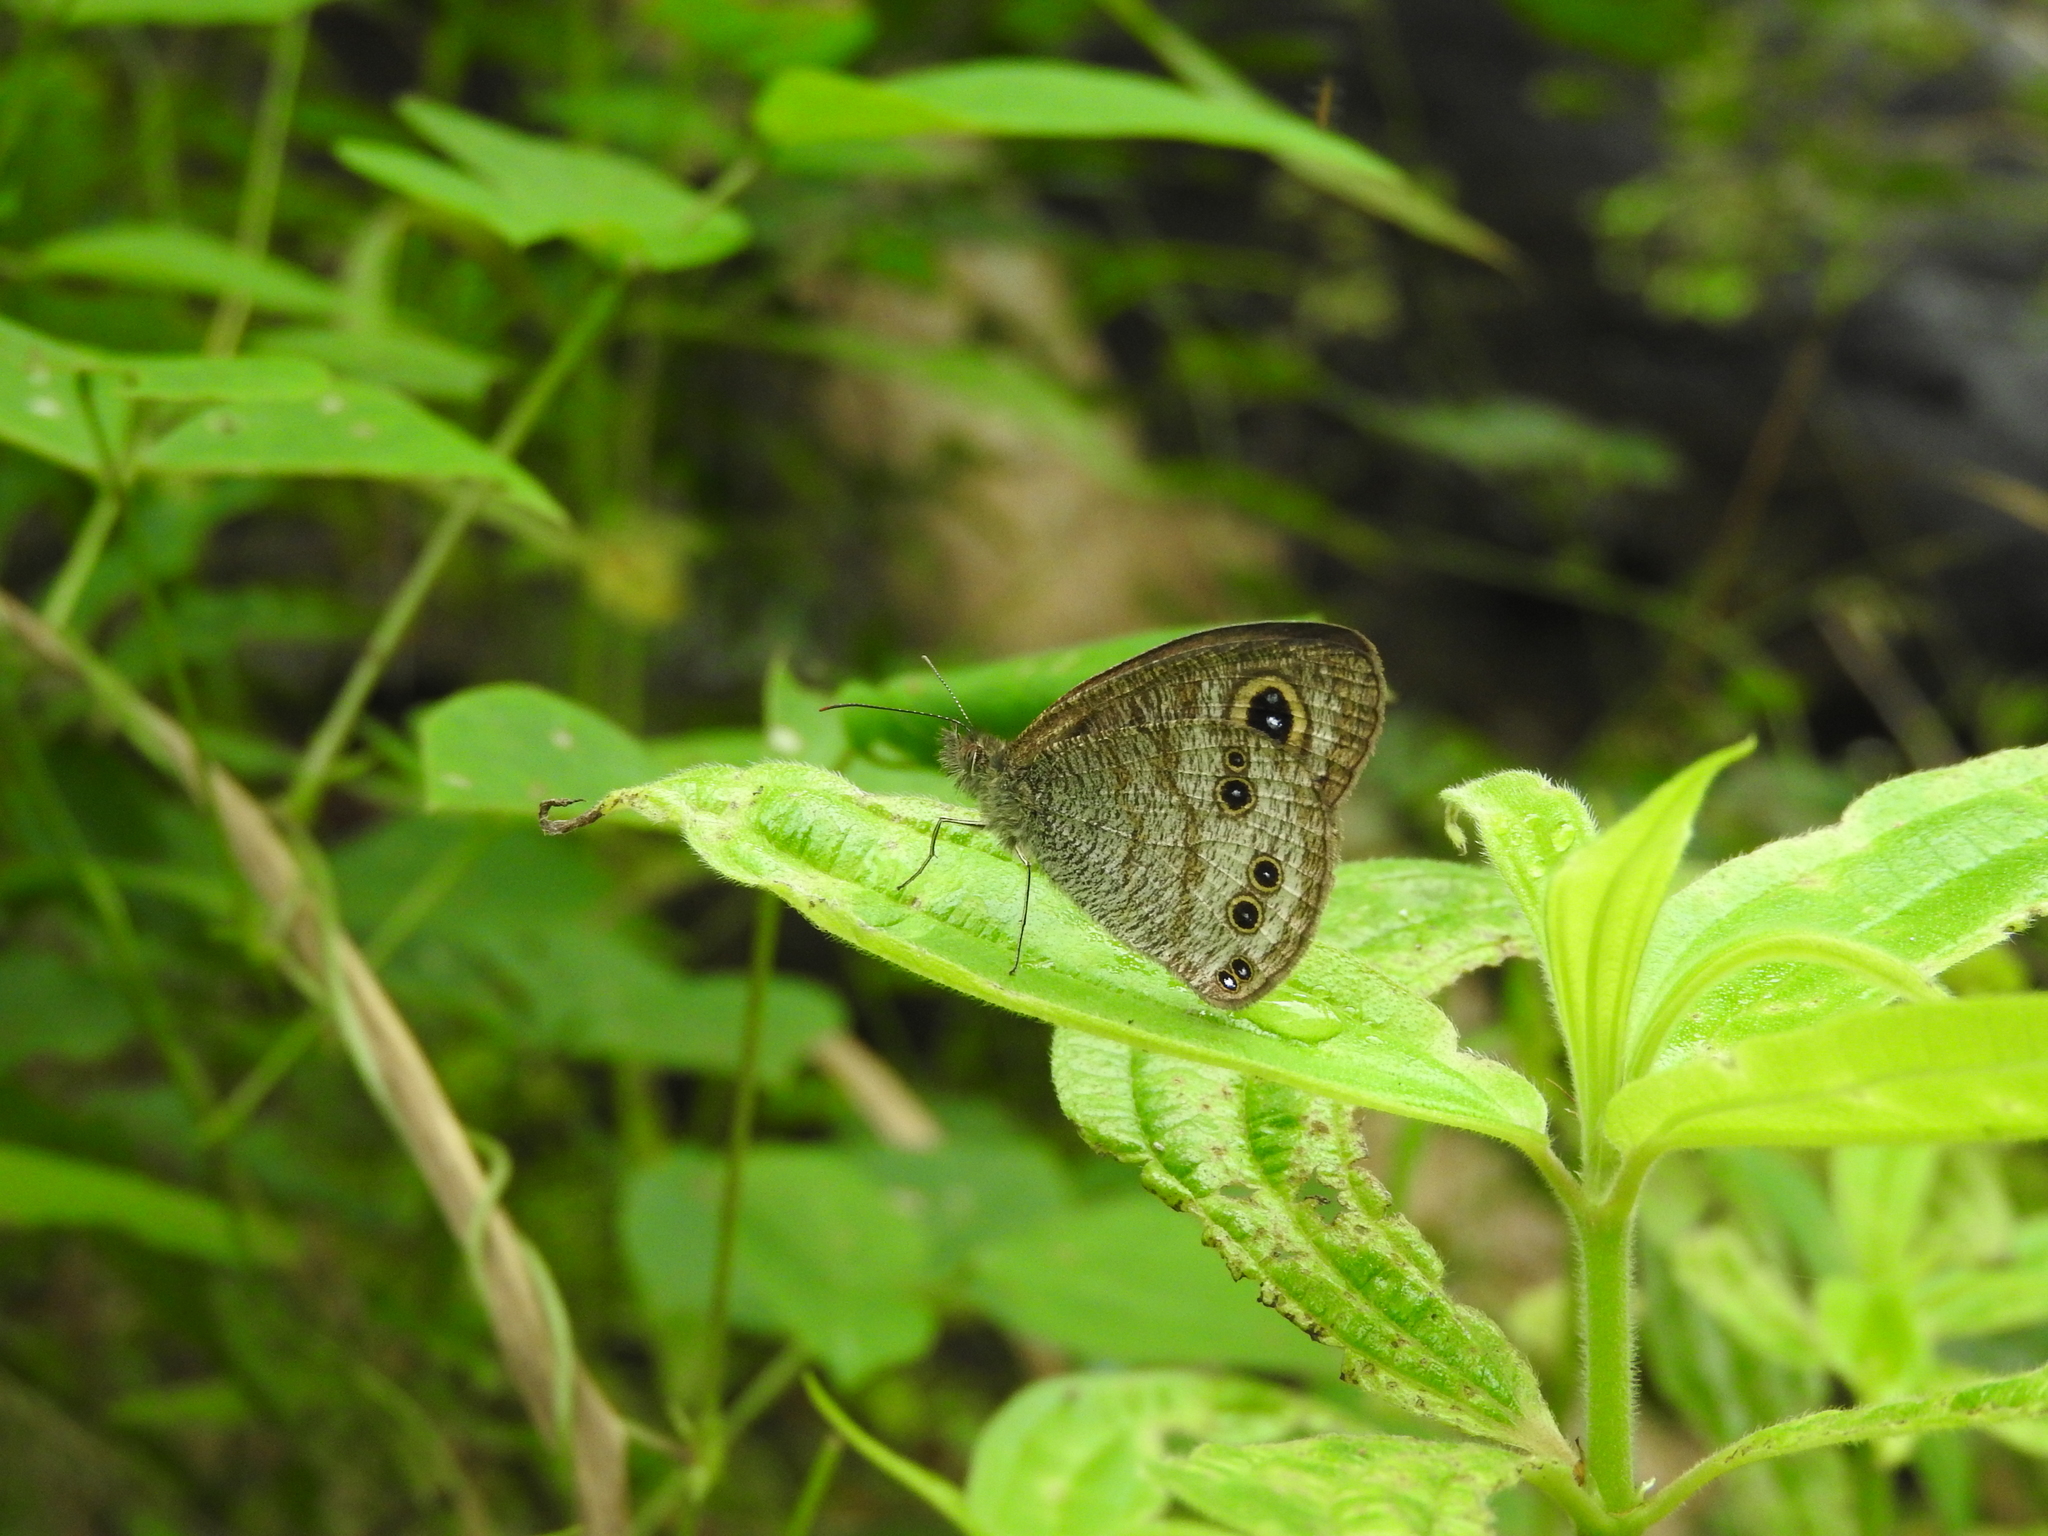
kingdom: Animalia
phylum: Arthropoda
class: Insecta
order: Lepidoptera
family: Nymphalidae
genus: Ypthima
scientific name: Ypthima baldus
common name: Common five-ring
